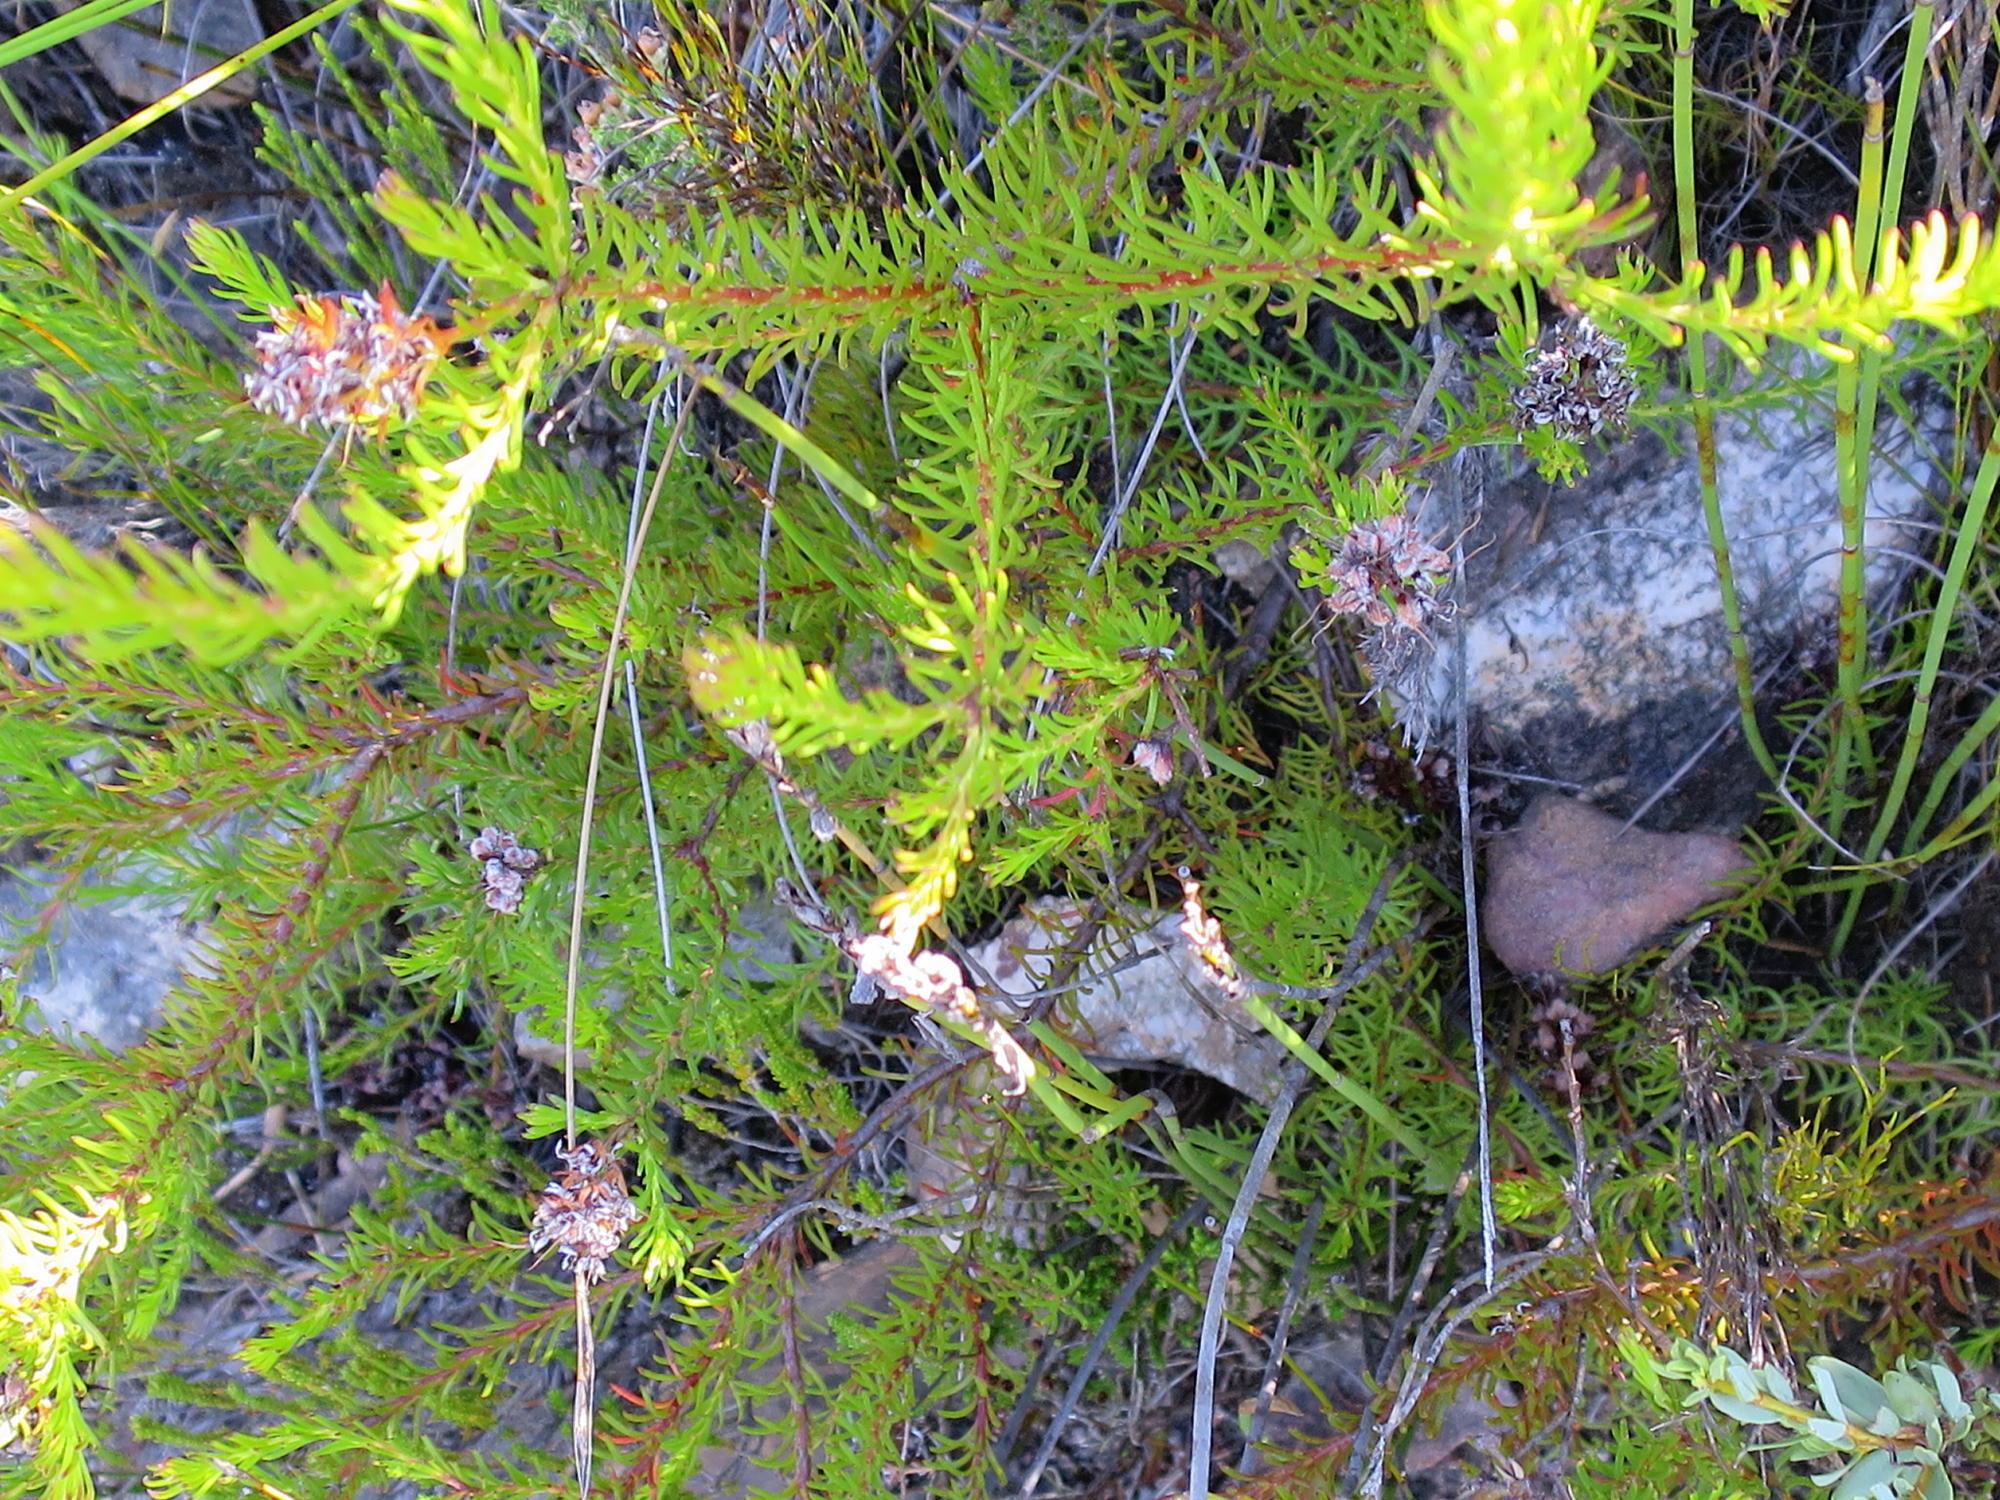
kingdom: Plantae
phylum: Tracheophyta
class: Magnoliopsida
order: Proteales
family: Proteaceae
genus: Spatalla
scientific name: Spatalla confusa
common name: Long-tube spoon
